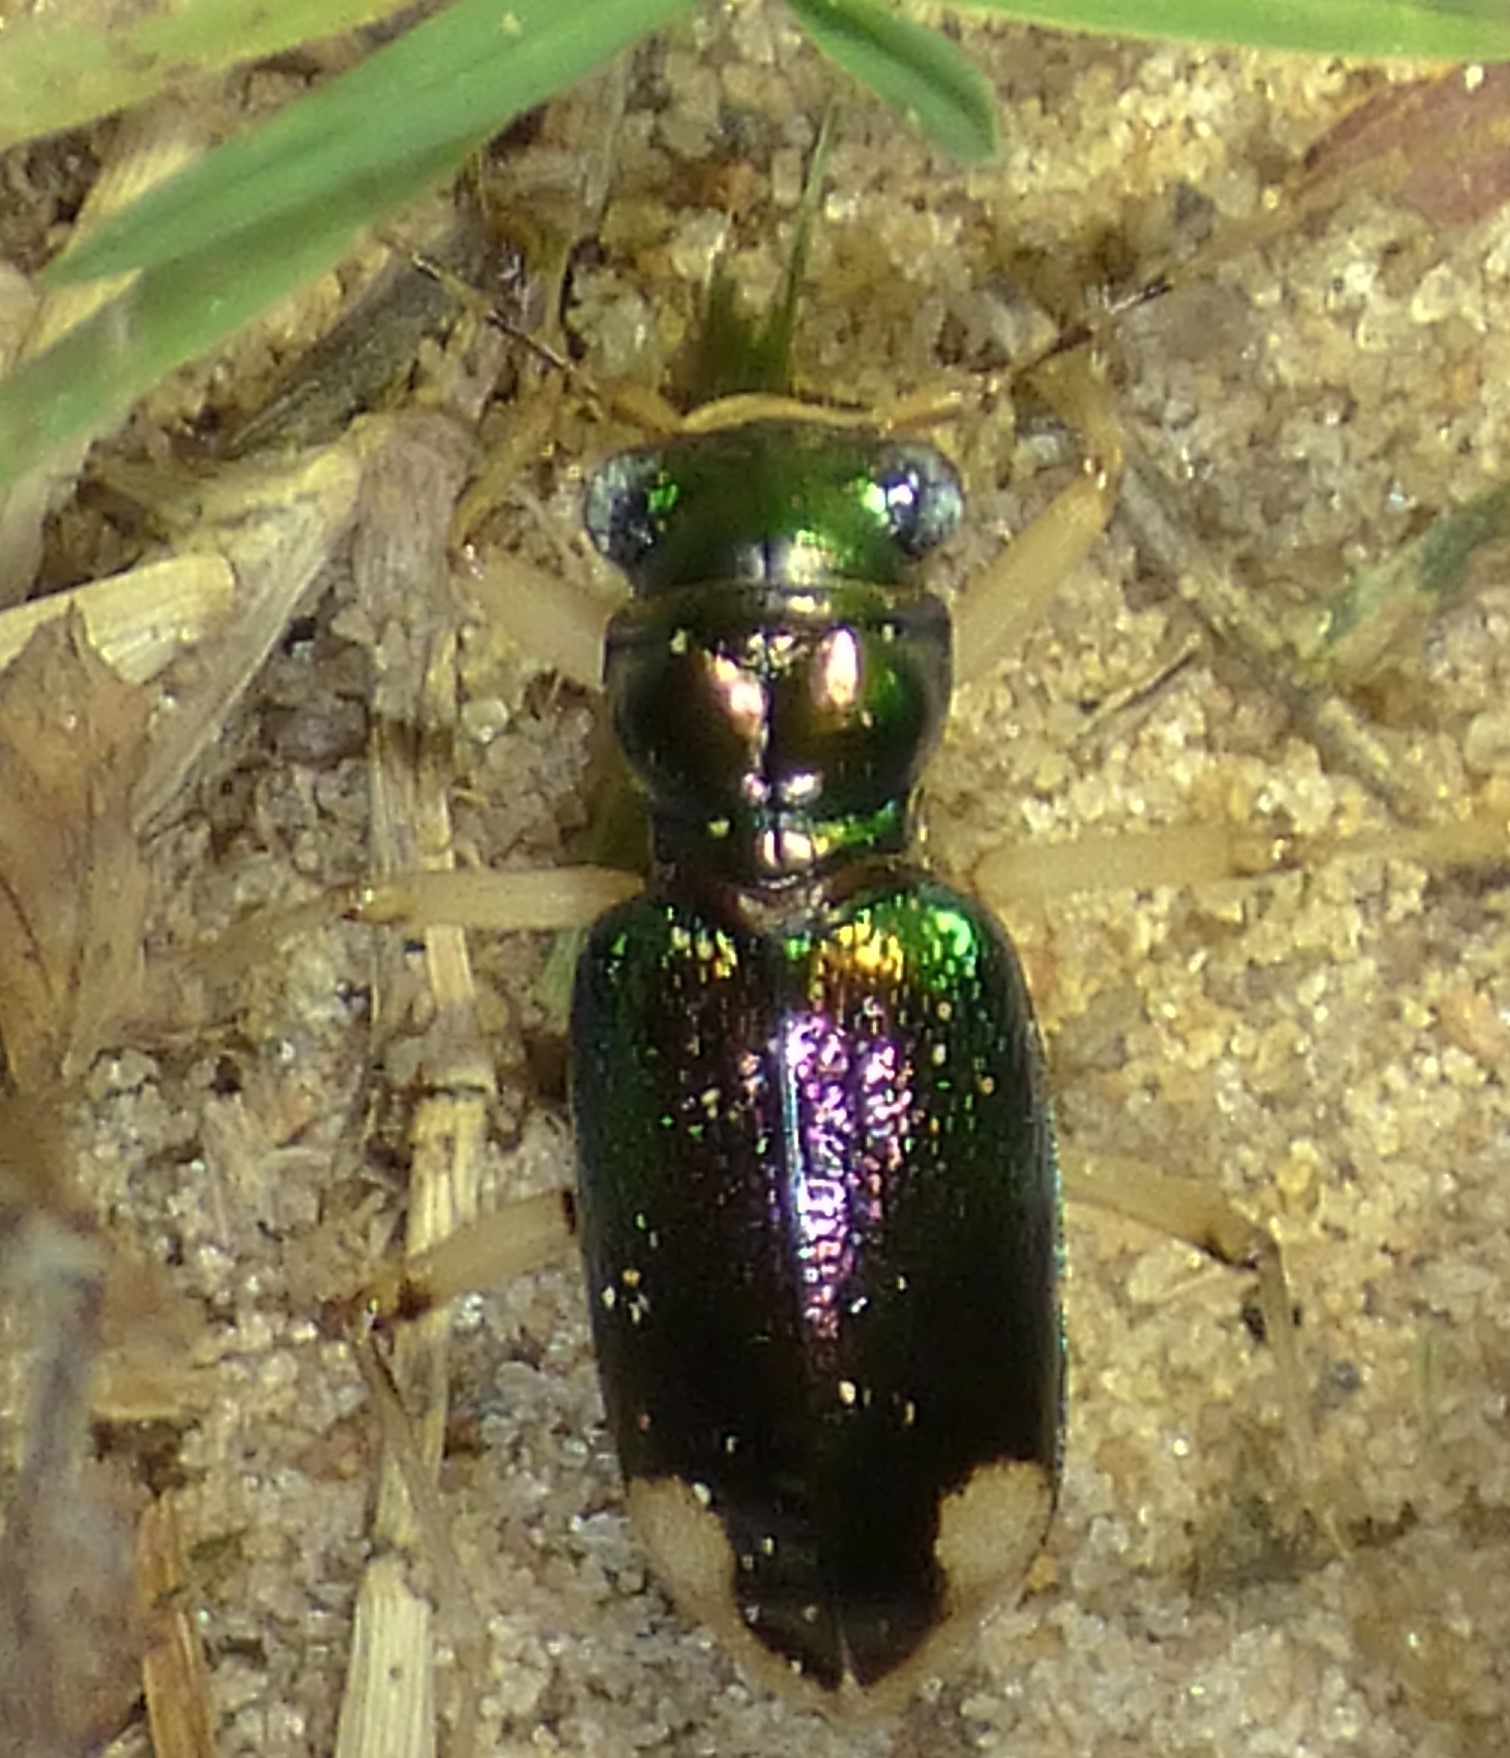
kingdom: Animalia
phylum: Arthropoda
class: Insecta
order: Coleoptera
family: Carabidae
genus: Tetracha
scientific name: Tetracha carolina
